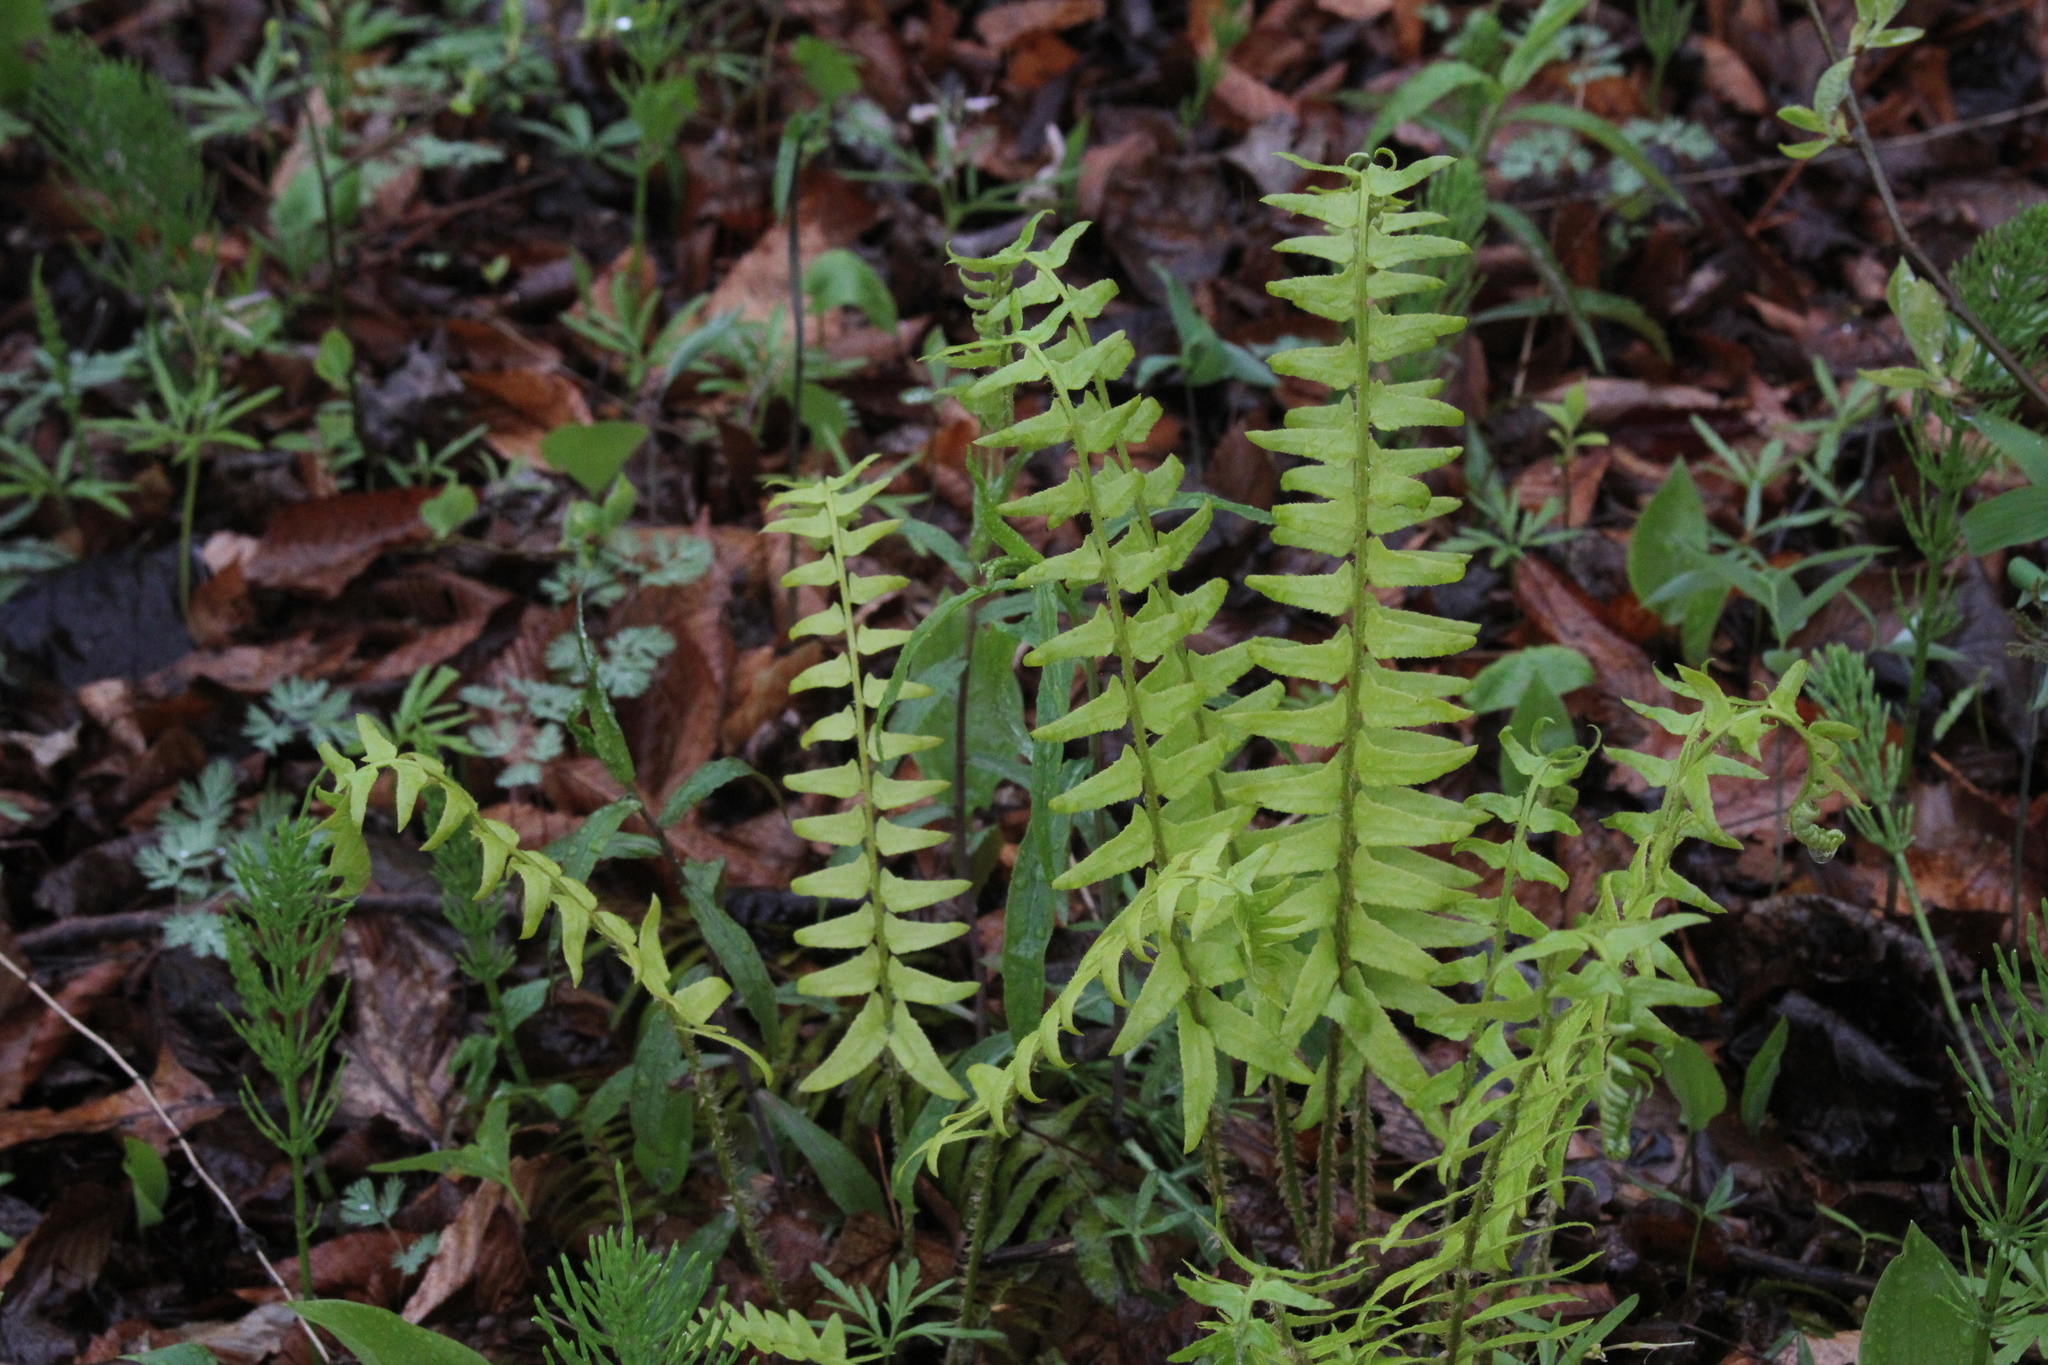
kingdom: Plantae
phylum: Tracheophyta
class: Polypodiopsida
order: Polypodiales
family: Dryopteridaceae
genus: Polystichum
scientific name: Polystichum acrostichoides
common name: Christmas fern
